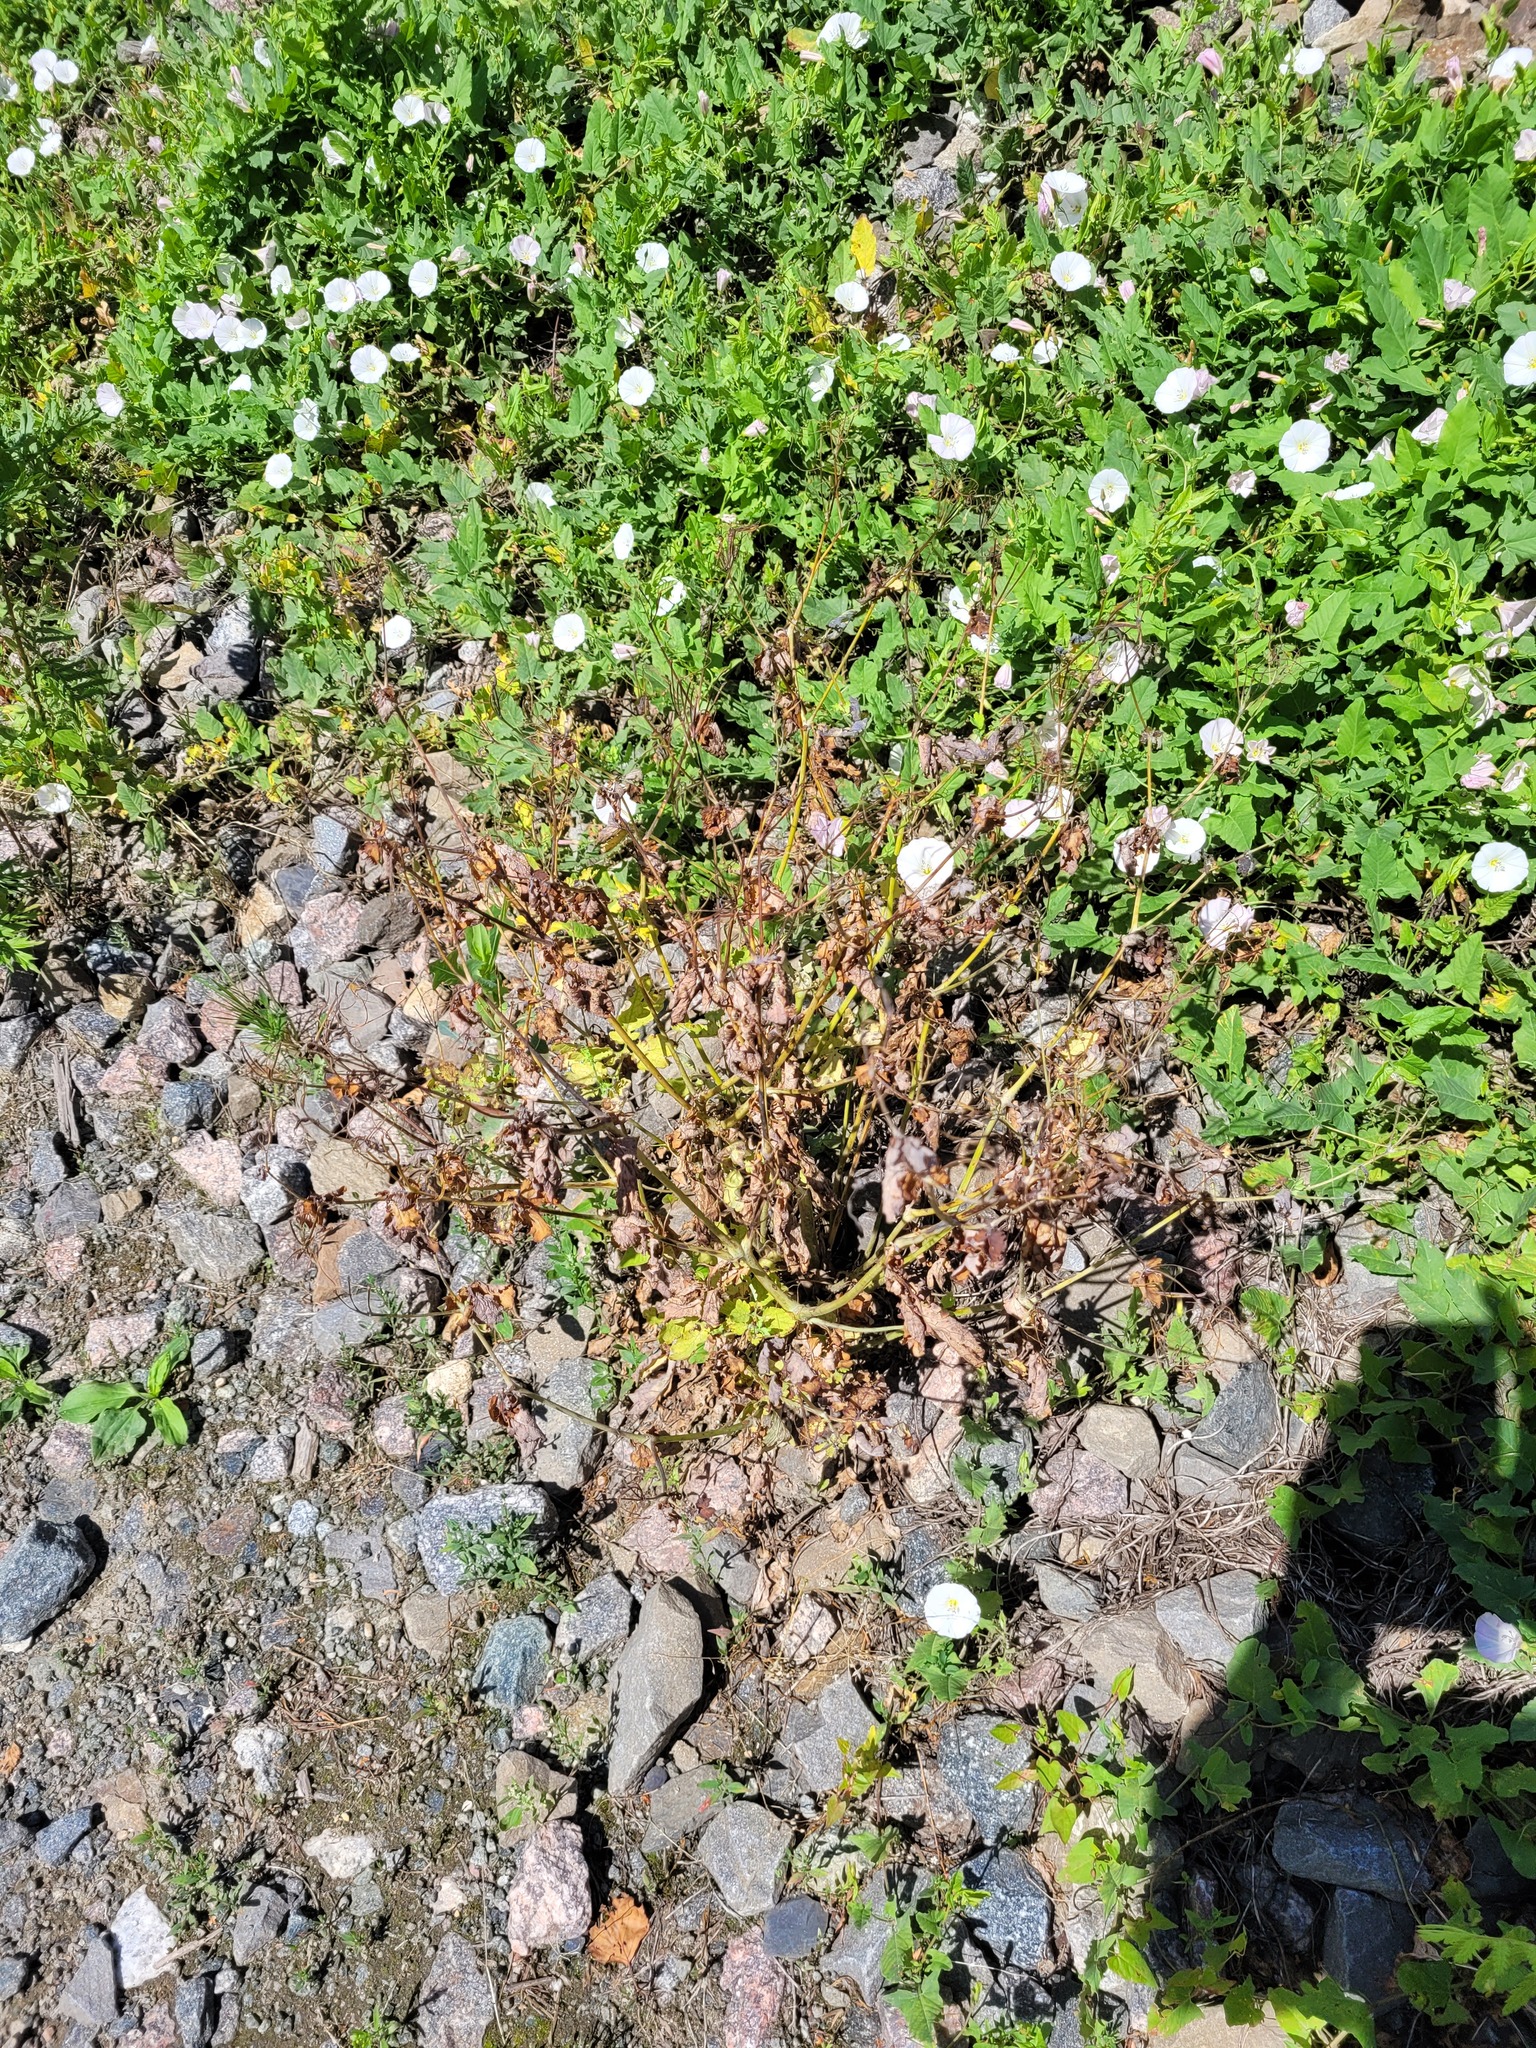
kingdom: Plantae
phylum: Tracheophyta
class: Magnoliopsida
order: Ranunculales
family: Papaveraceae
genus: Chelidonium
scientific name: Chelidonium majus
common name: Greater celandine
